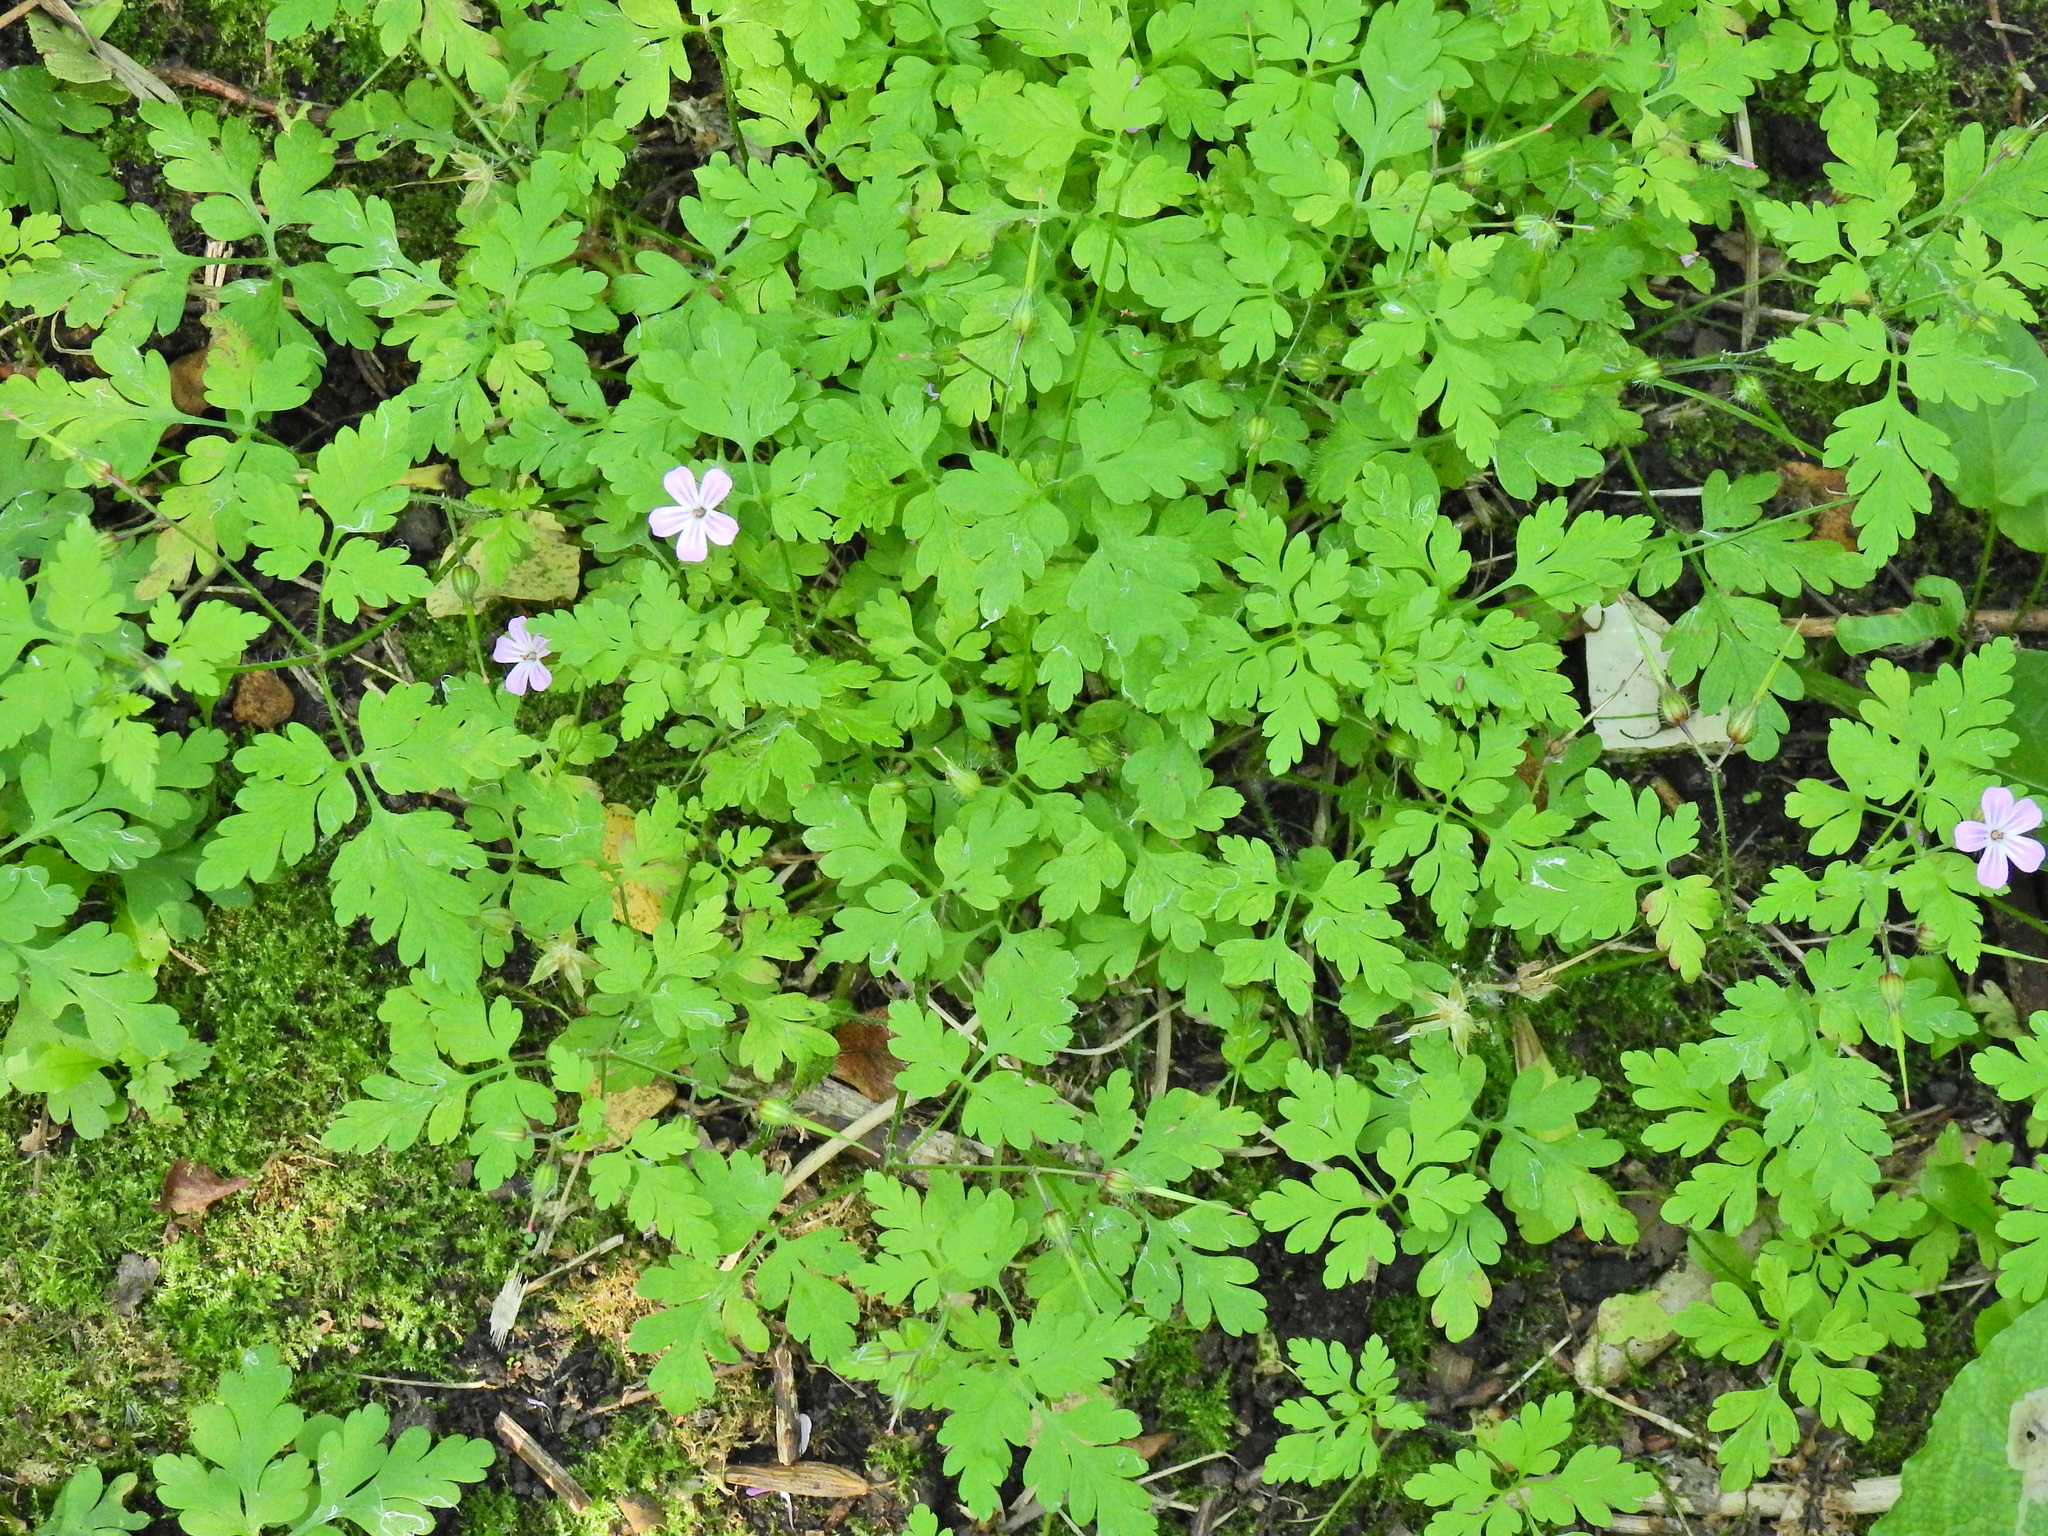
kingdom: Plantae
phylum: Tracheophyta
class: Magnoliopsida
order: Geraniales
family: Geraniaceae
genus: Geranium
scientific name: Geranium robertianum
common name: Herb-robert
